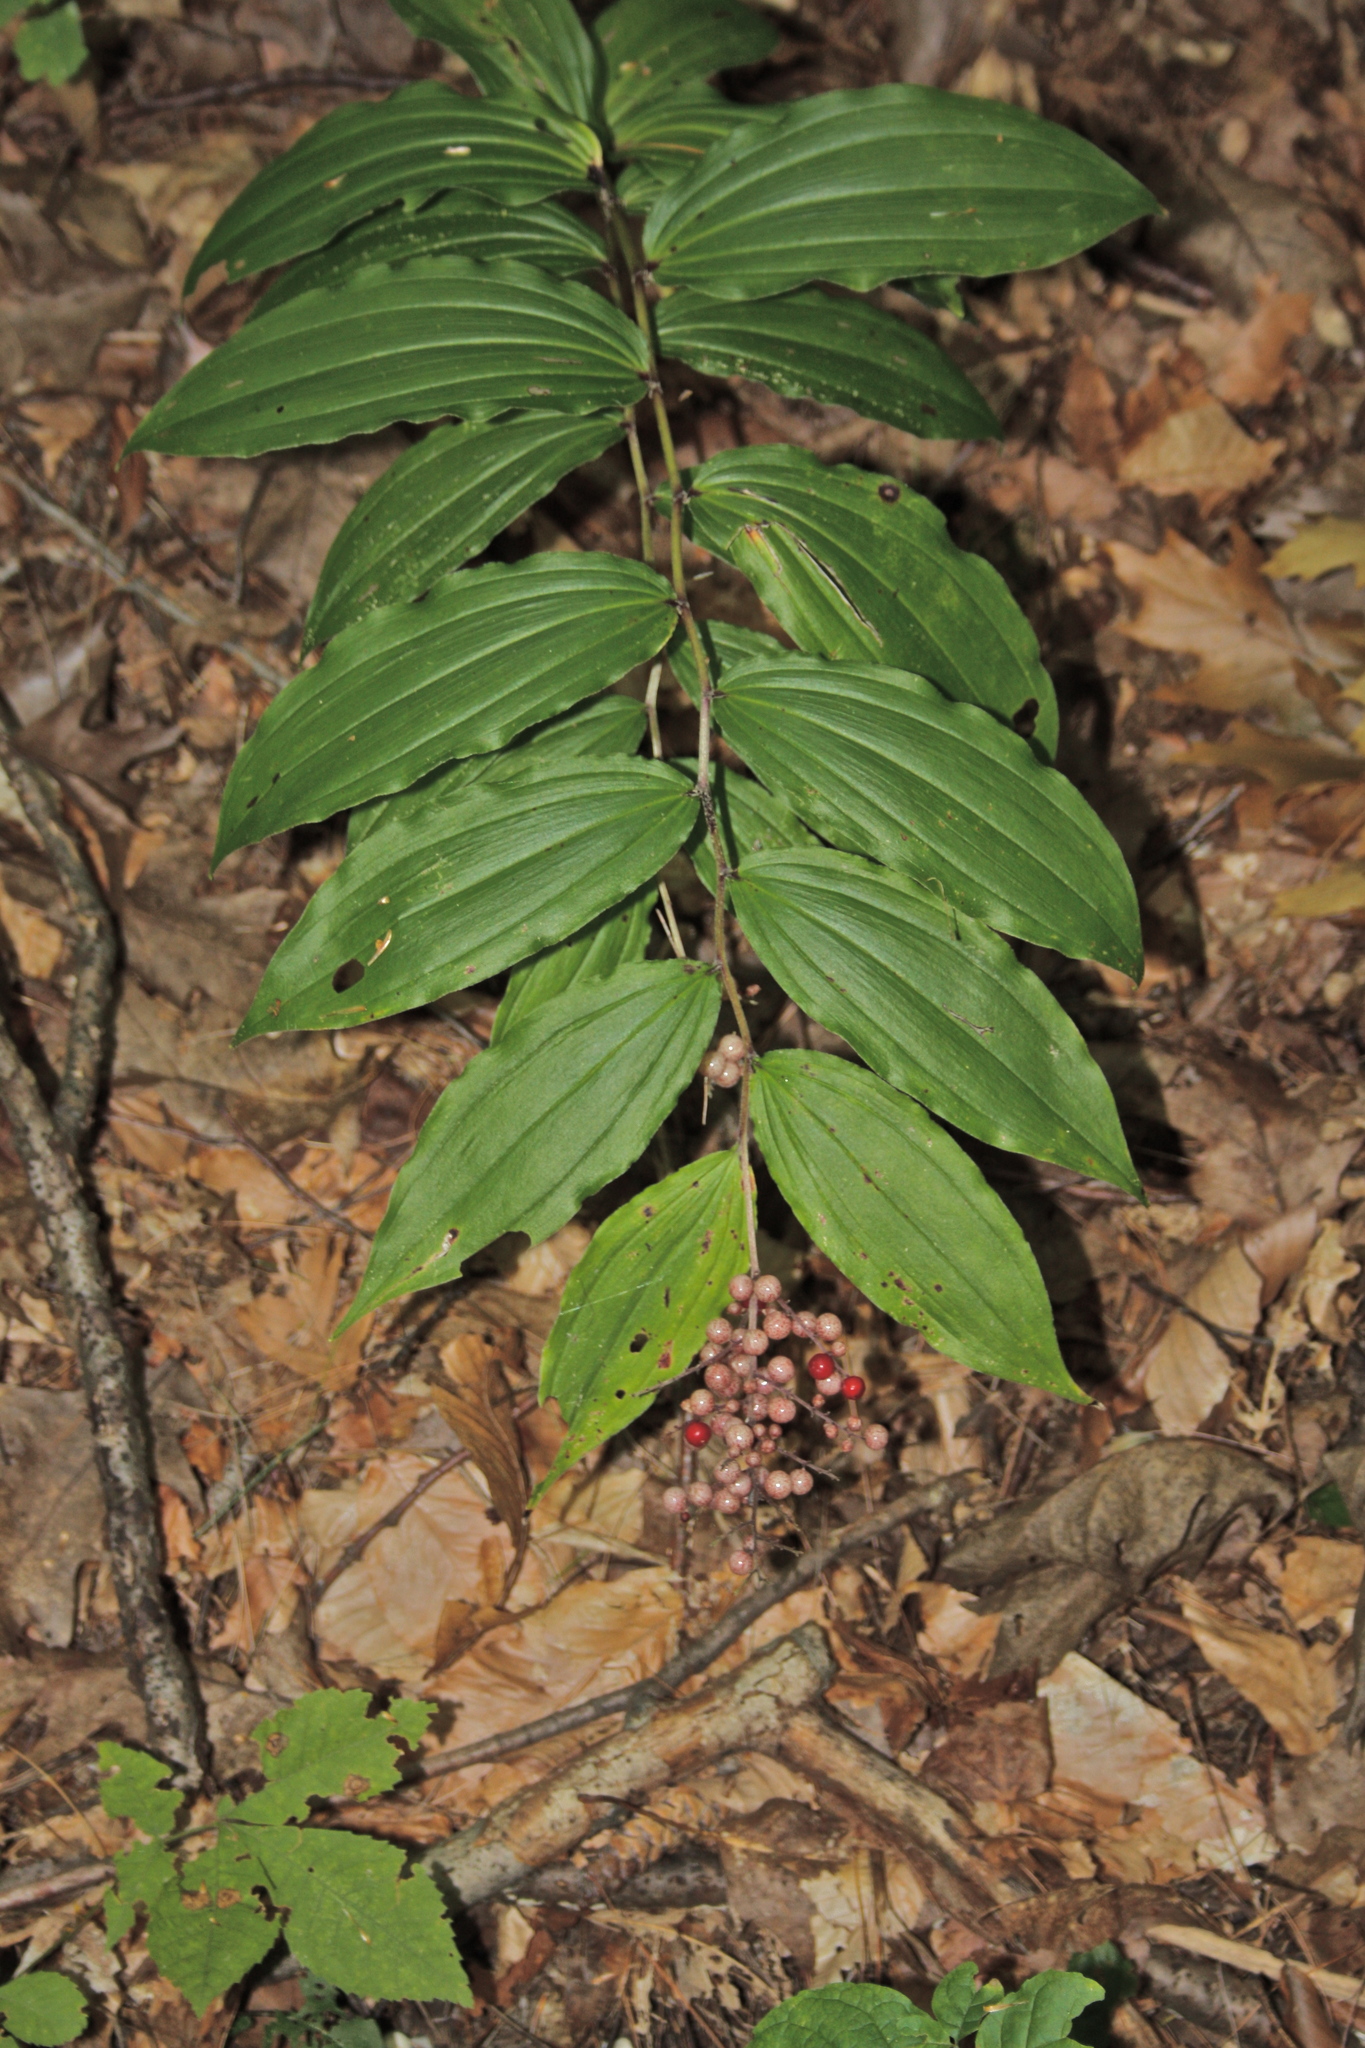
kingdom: Plantae
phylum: Tracheophyta
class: Liliopsida
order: Asparagales
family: Asparagaceae
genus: Maianthemum
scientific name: Maianthemum racemosum
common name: False spikenard
